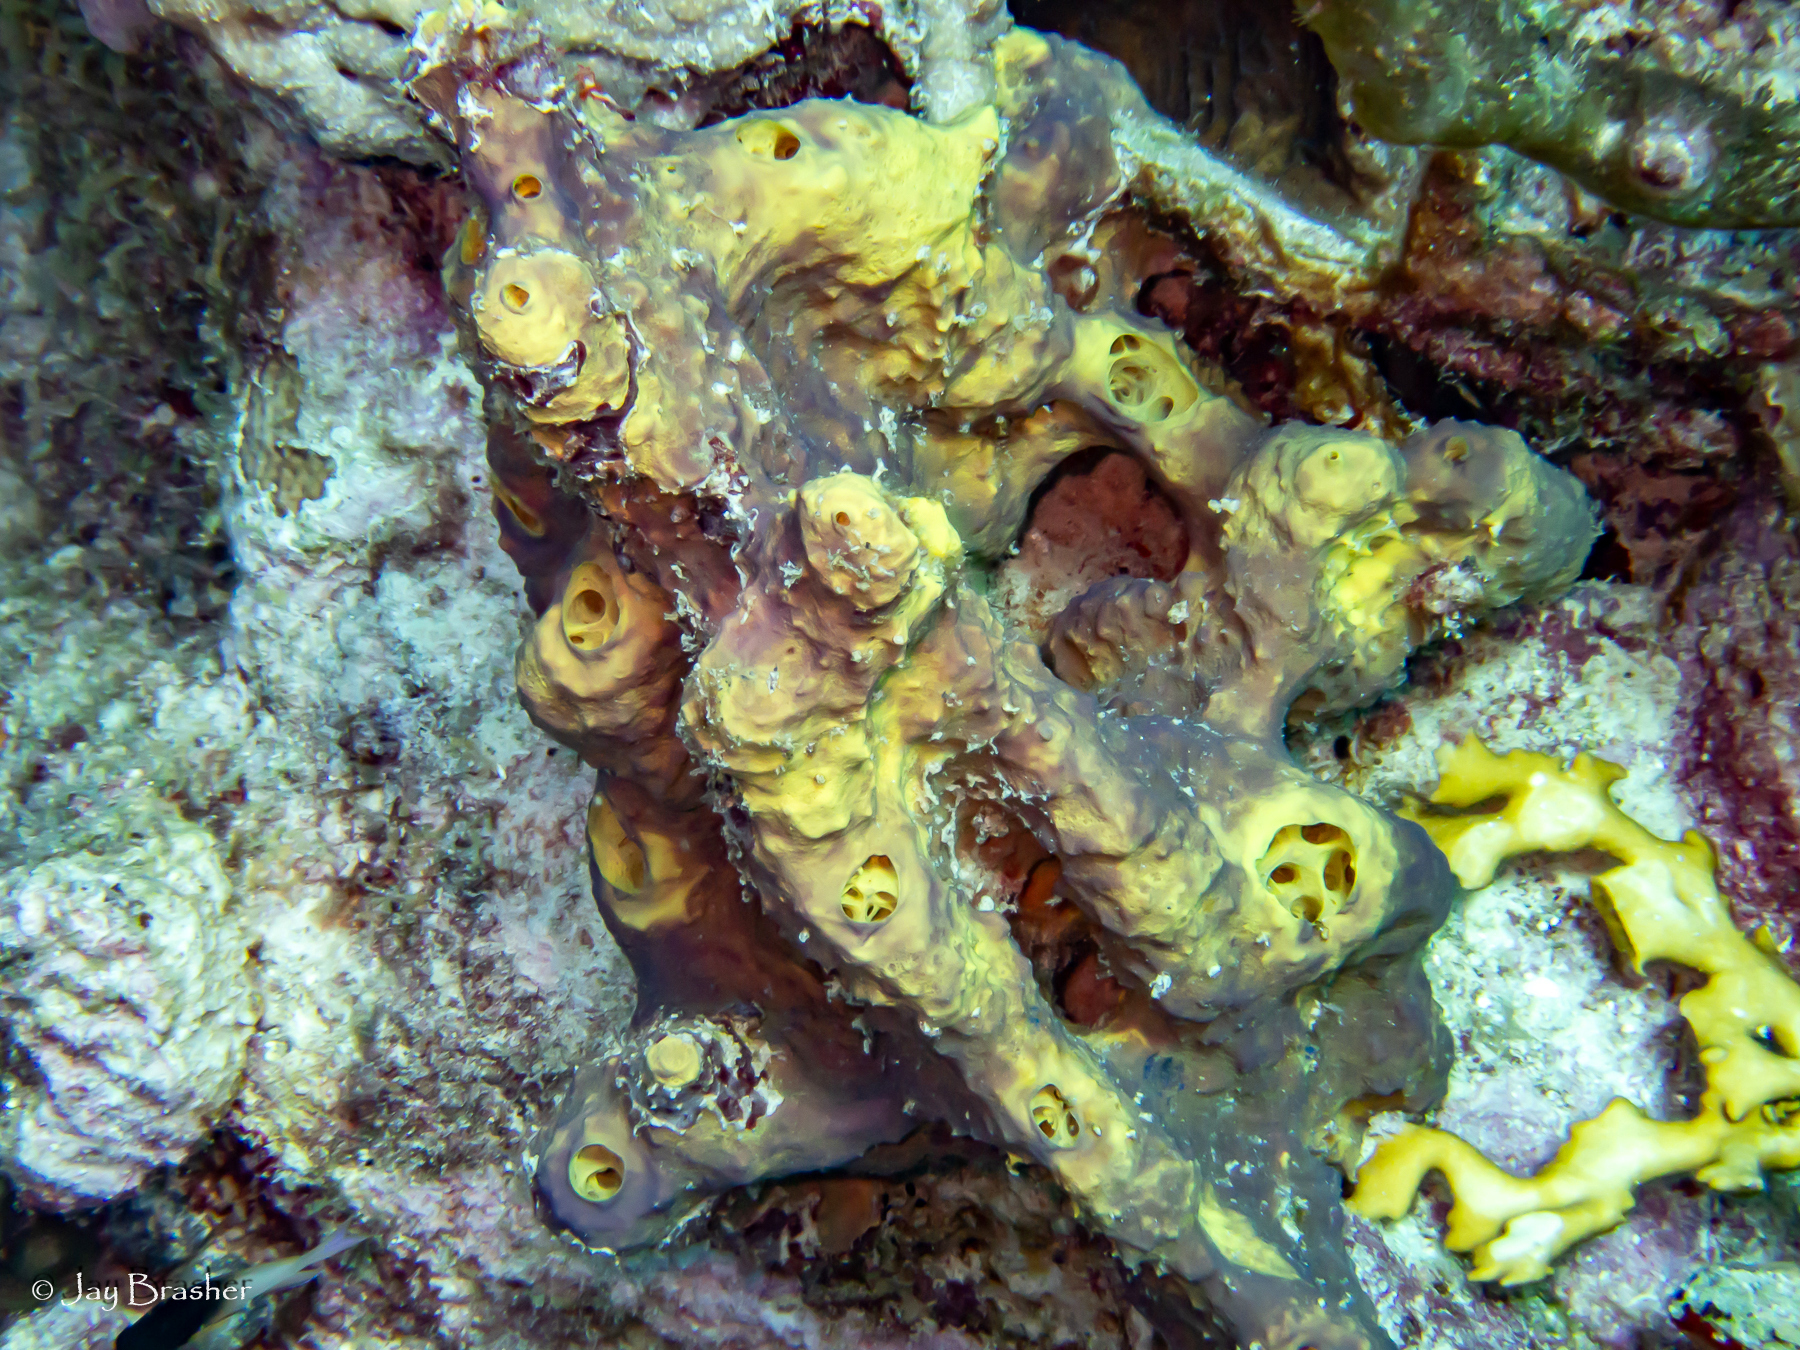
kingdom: Animalia
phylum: Porifera
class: Demospongiae
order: Verongiida
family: Aplysinidae
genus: Aiolochroia
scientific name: Aiolochroia crassa
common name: Branching tube sponge
